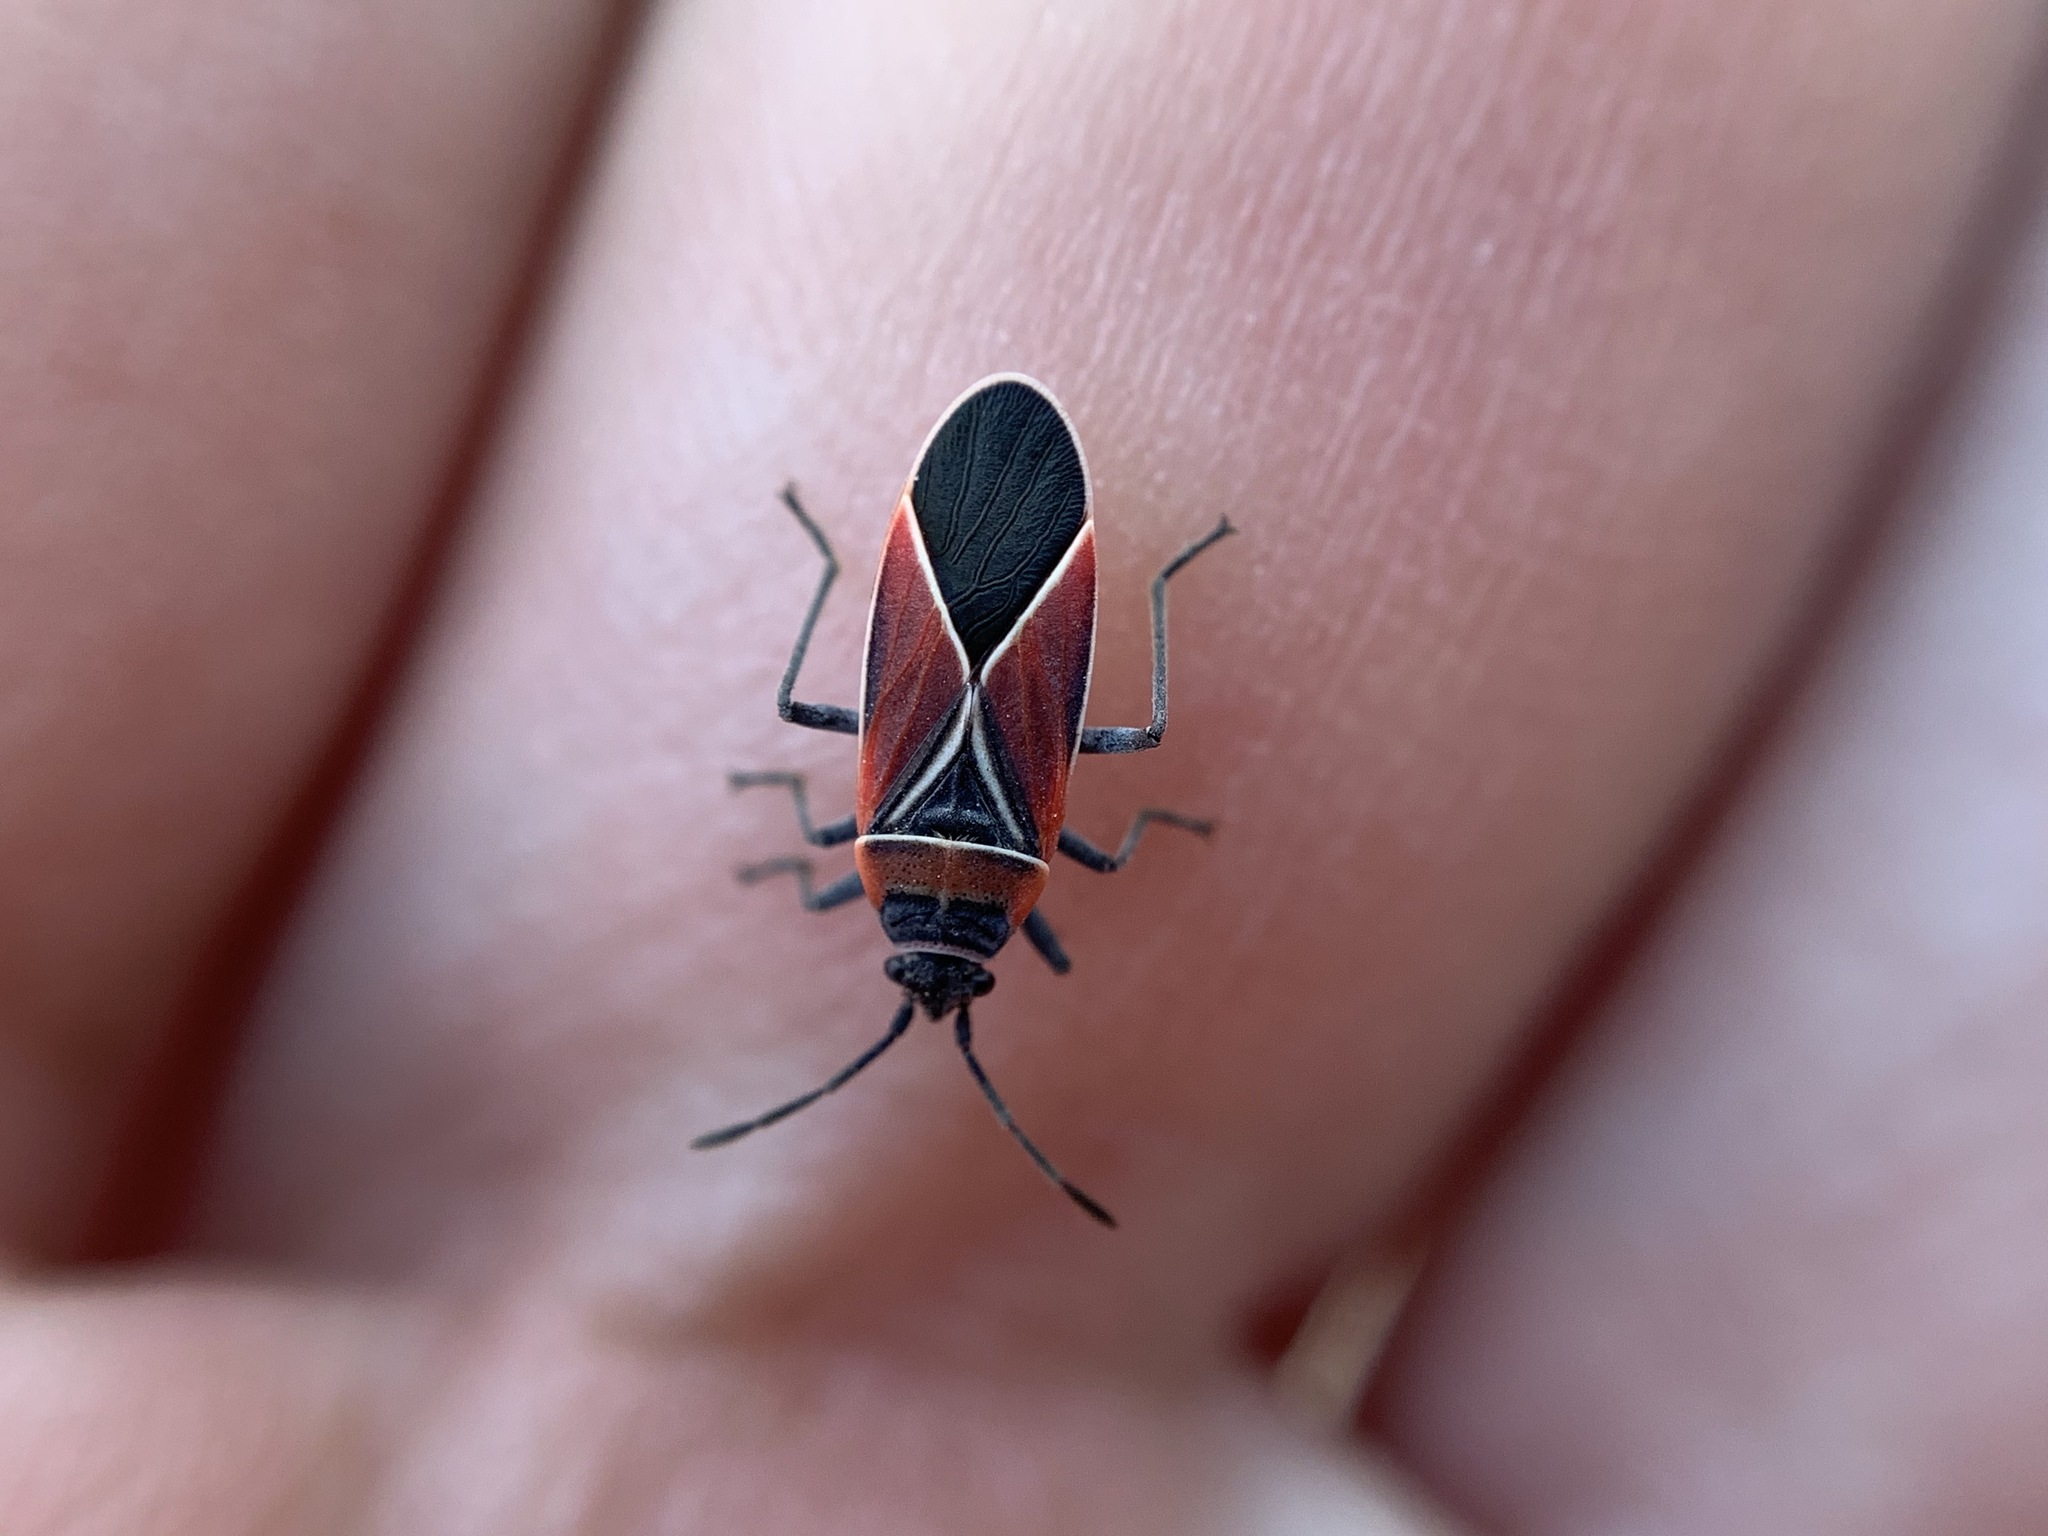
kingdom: Animalia
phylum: Arthropoda
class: Insecta
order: Hemiptera
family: Lygaeidae
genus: Neacoryphus
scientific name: Neacoryphus bicrucis
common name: Lygaeid bug
